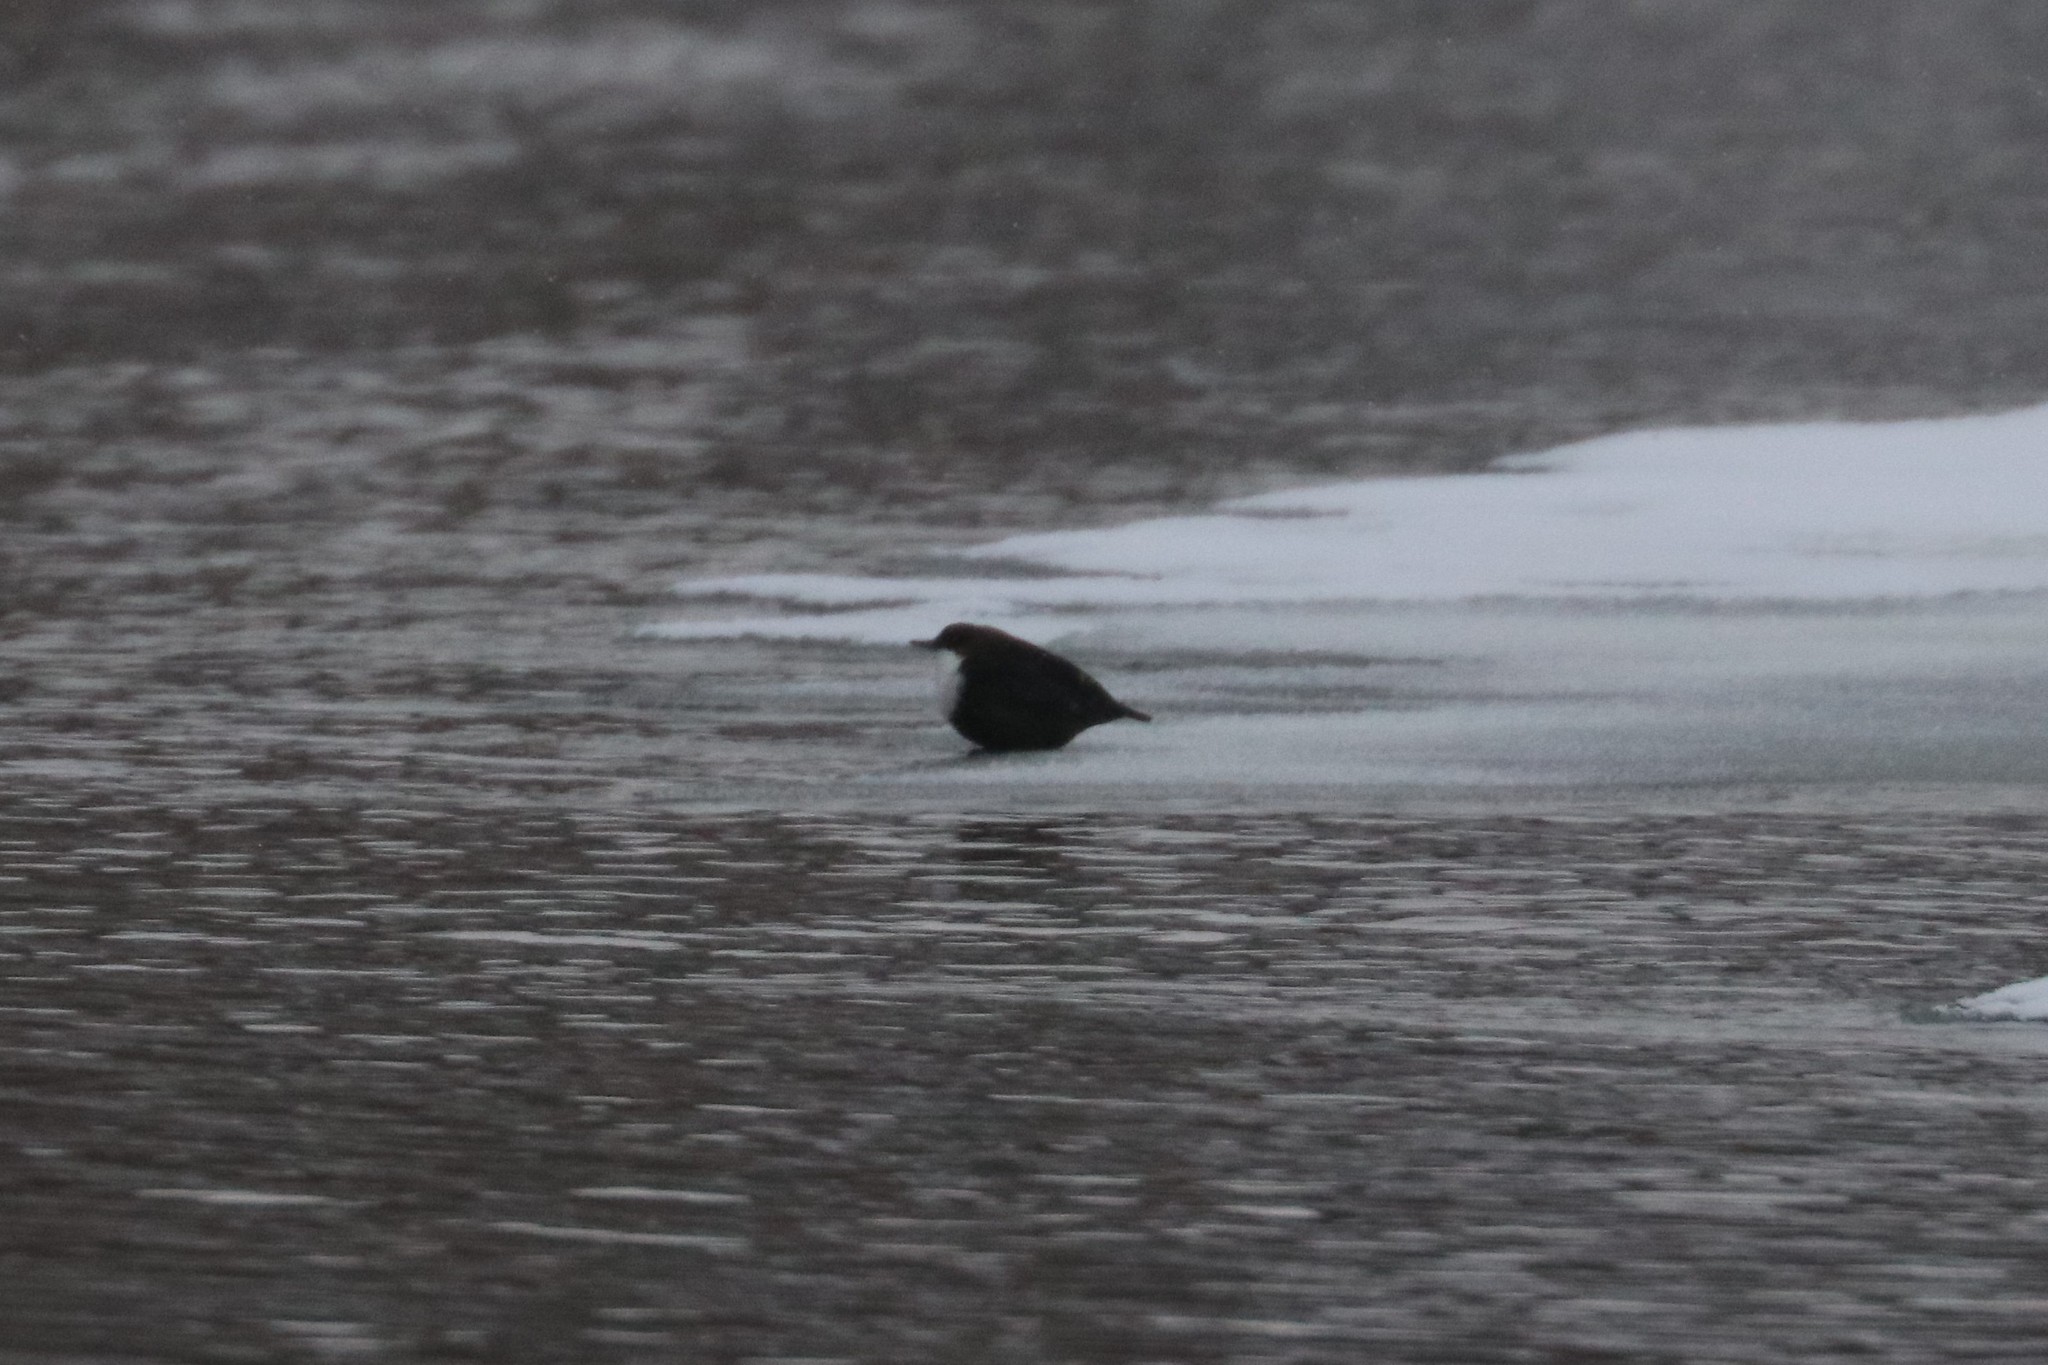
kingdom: Animalia
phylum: Chordata
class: Aves
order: Passeriformes
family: Cinclidae
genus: Cinclus
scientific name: Cinclus cinclus
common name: White-throated dipper
